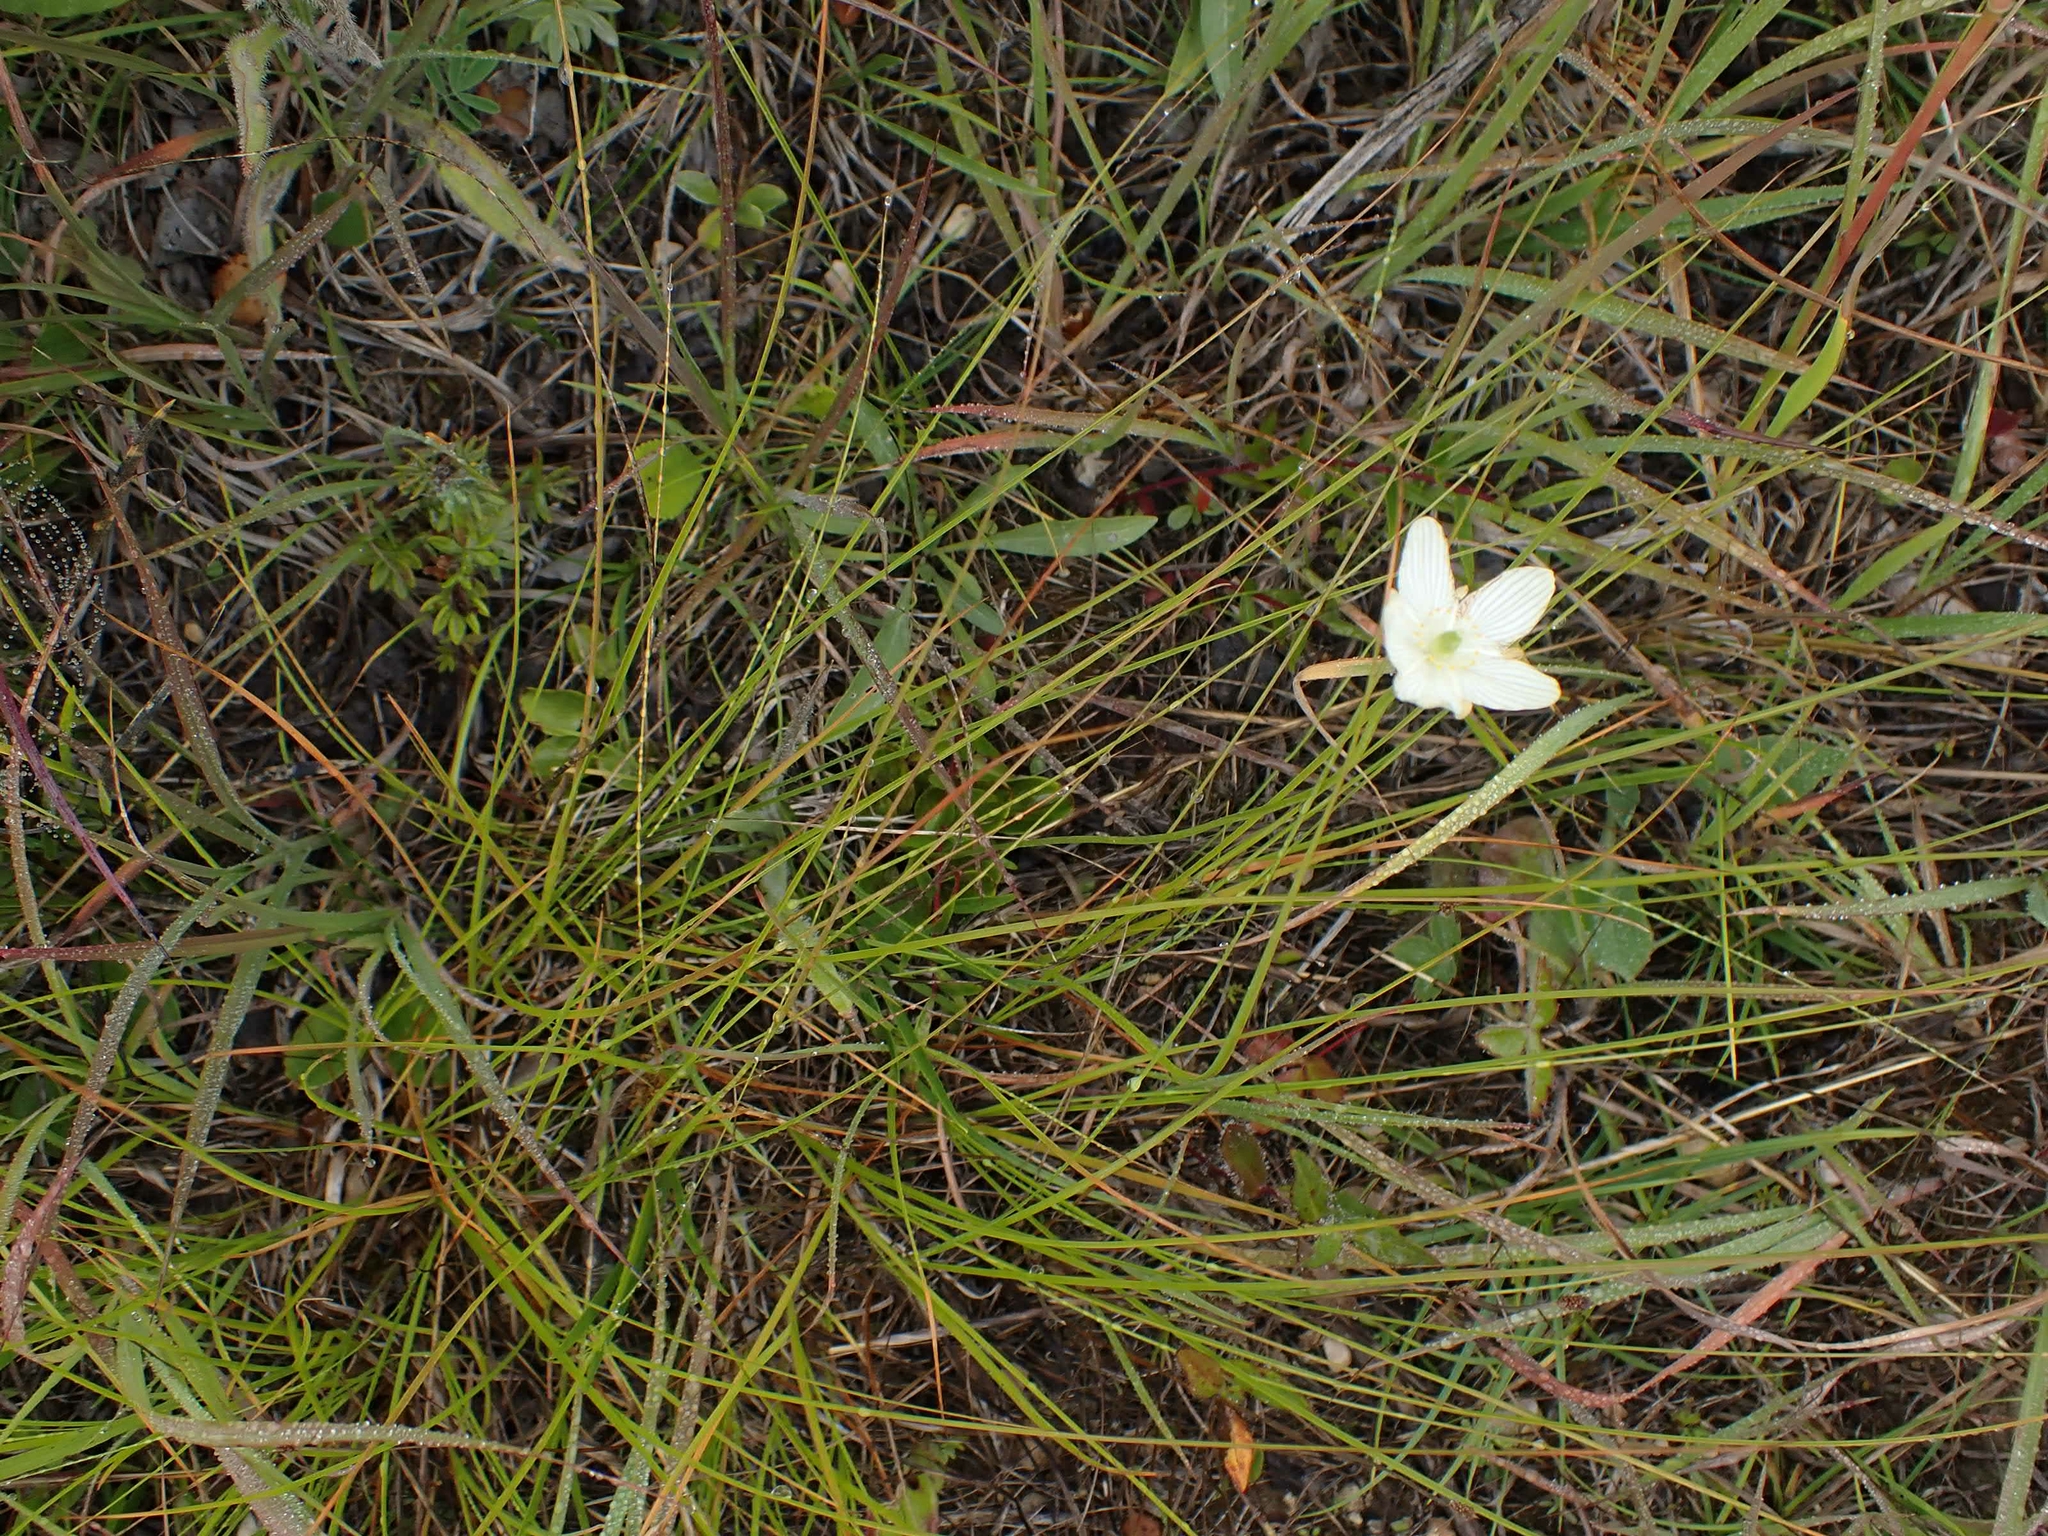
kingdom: Plantae
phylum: Tracheophyta
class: Magnoliopsida
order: Celastrales
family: Parnassiaceae
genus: Parnassia
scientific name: Parnassia glauca
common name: American grass-of-parnassus
